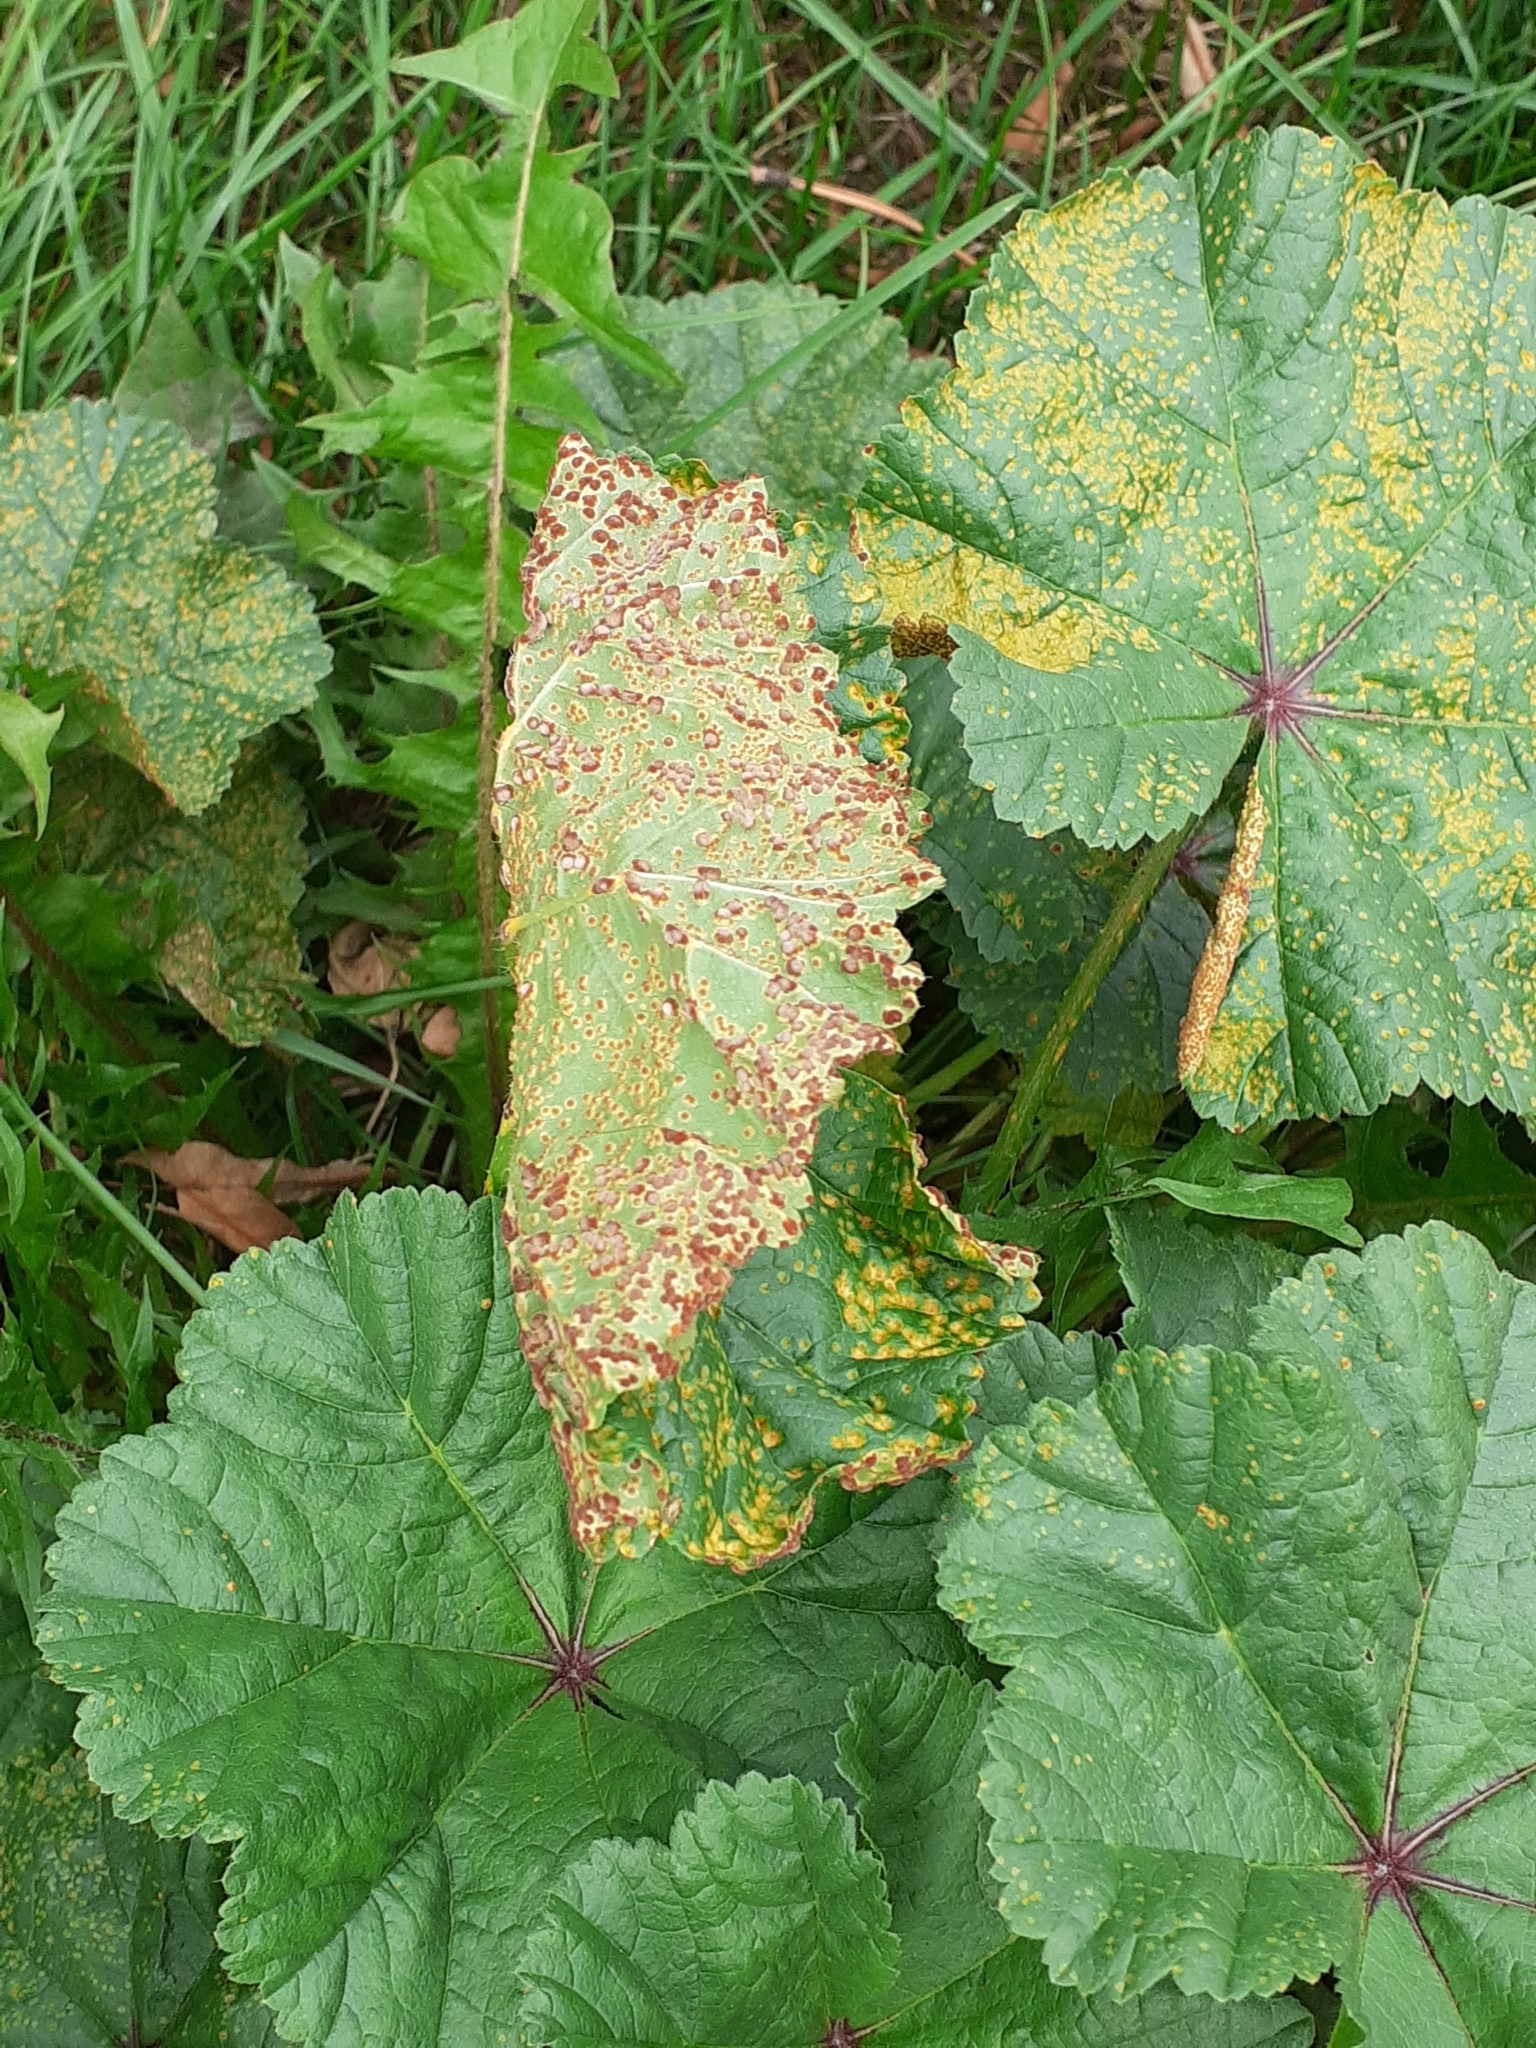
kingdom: Fungi
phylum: Basidiomycota
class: Pucciniomycetes
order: Pucciniales
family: Pucciniaceae
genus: Puccinia
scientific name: Puccinia malvacearum
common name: Hollyhock rust
